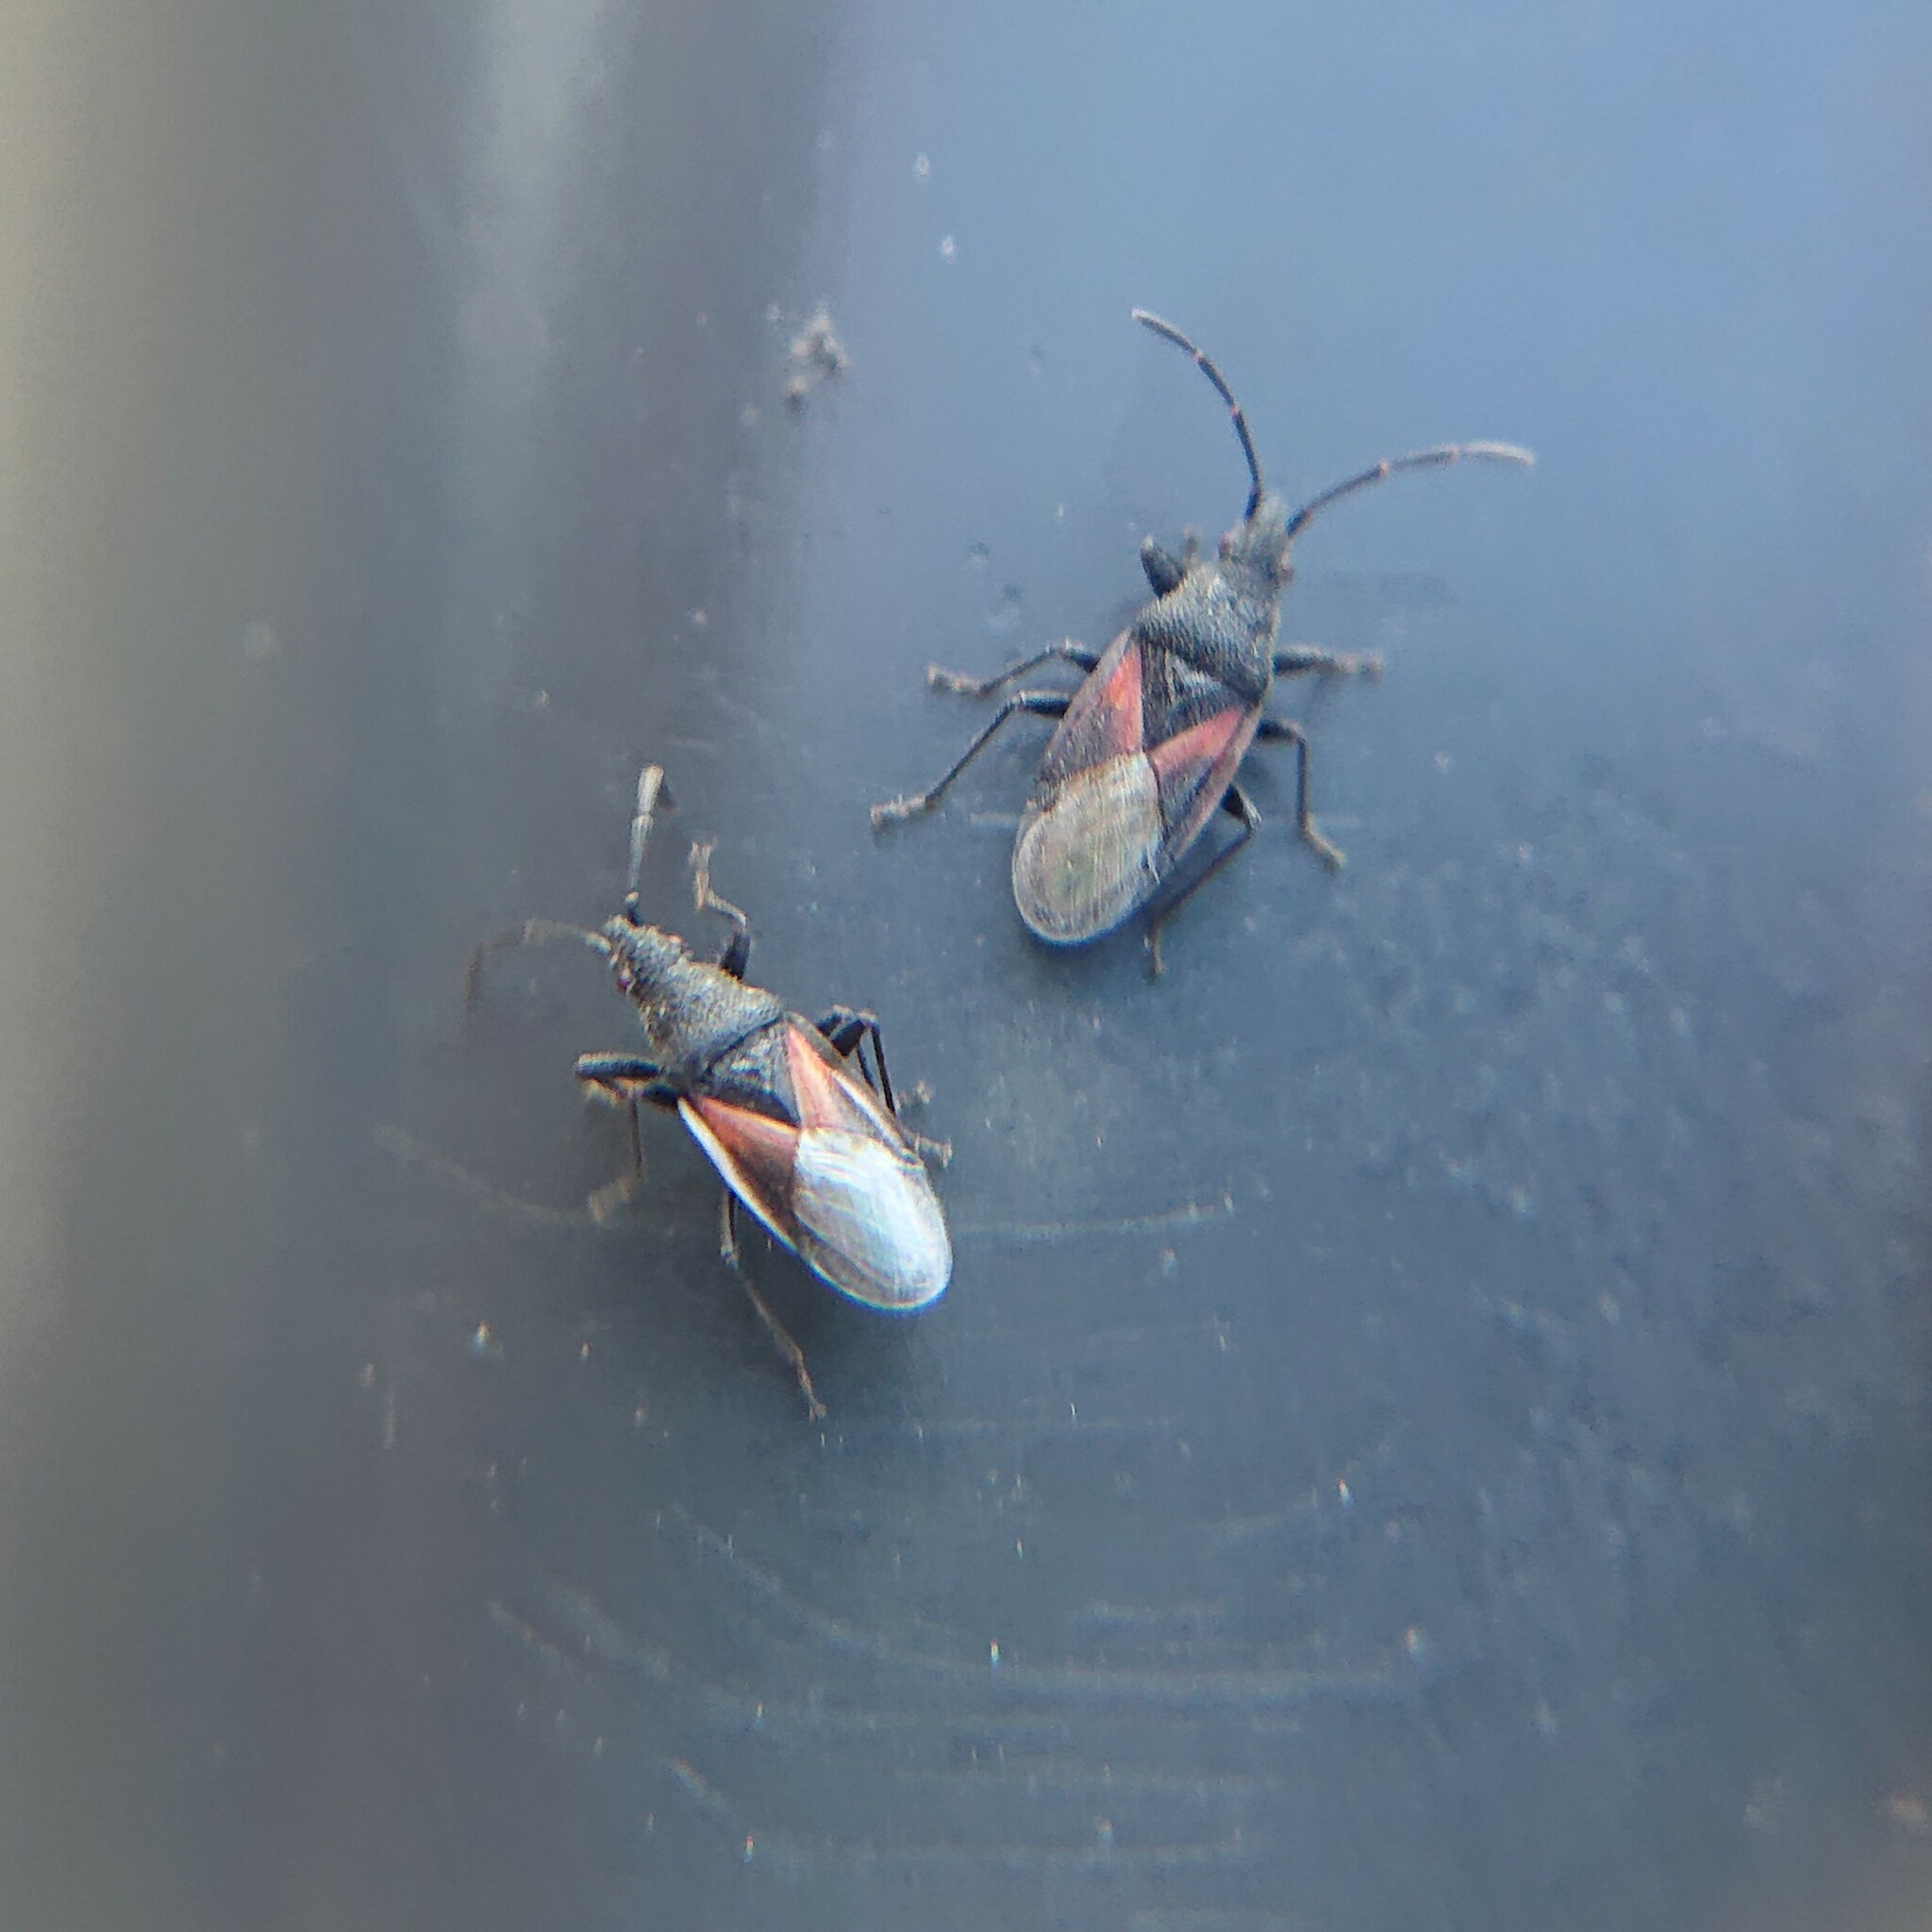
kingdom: Animalia
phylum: Arthropoda
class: Insecta
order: Hemiptera
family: Oxycarenidae
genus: Oxycarenus
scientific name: Oxycarenus lavaterae
